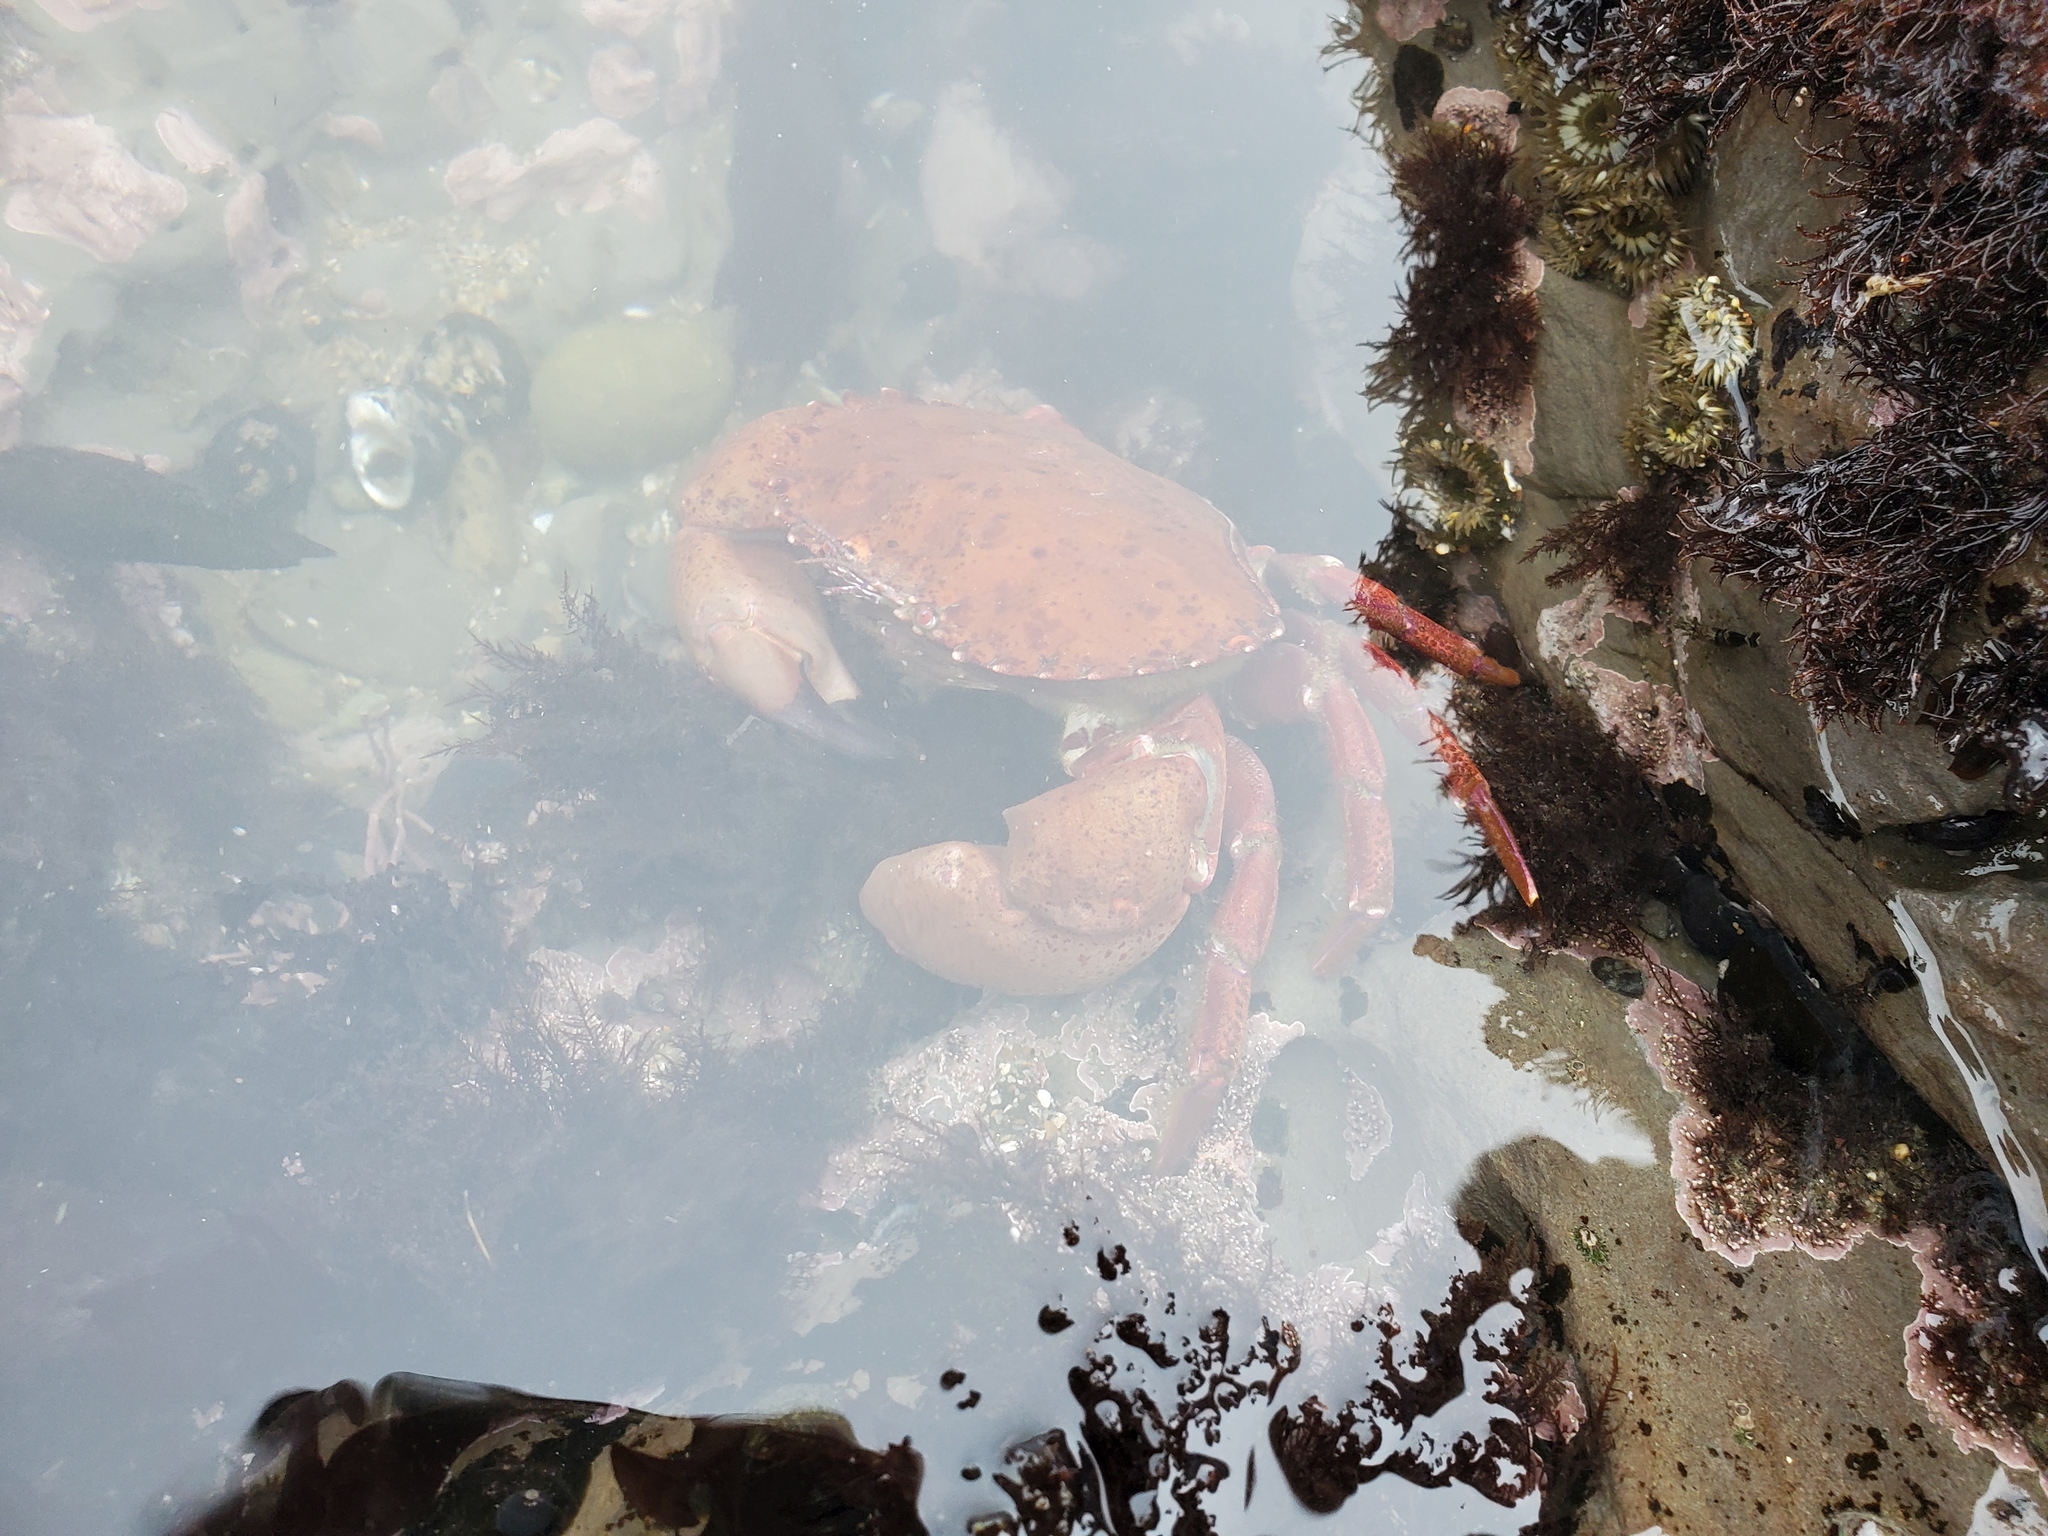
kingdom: Animalia
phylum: Arthropoda
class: Malacostraca
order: Decapoda
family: Cancridae
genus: Romaleon
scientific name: Romaleon antennarium
